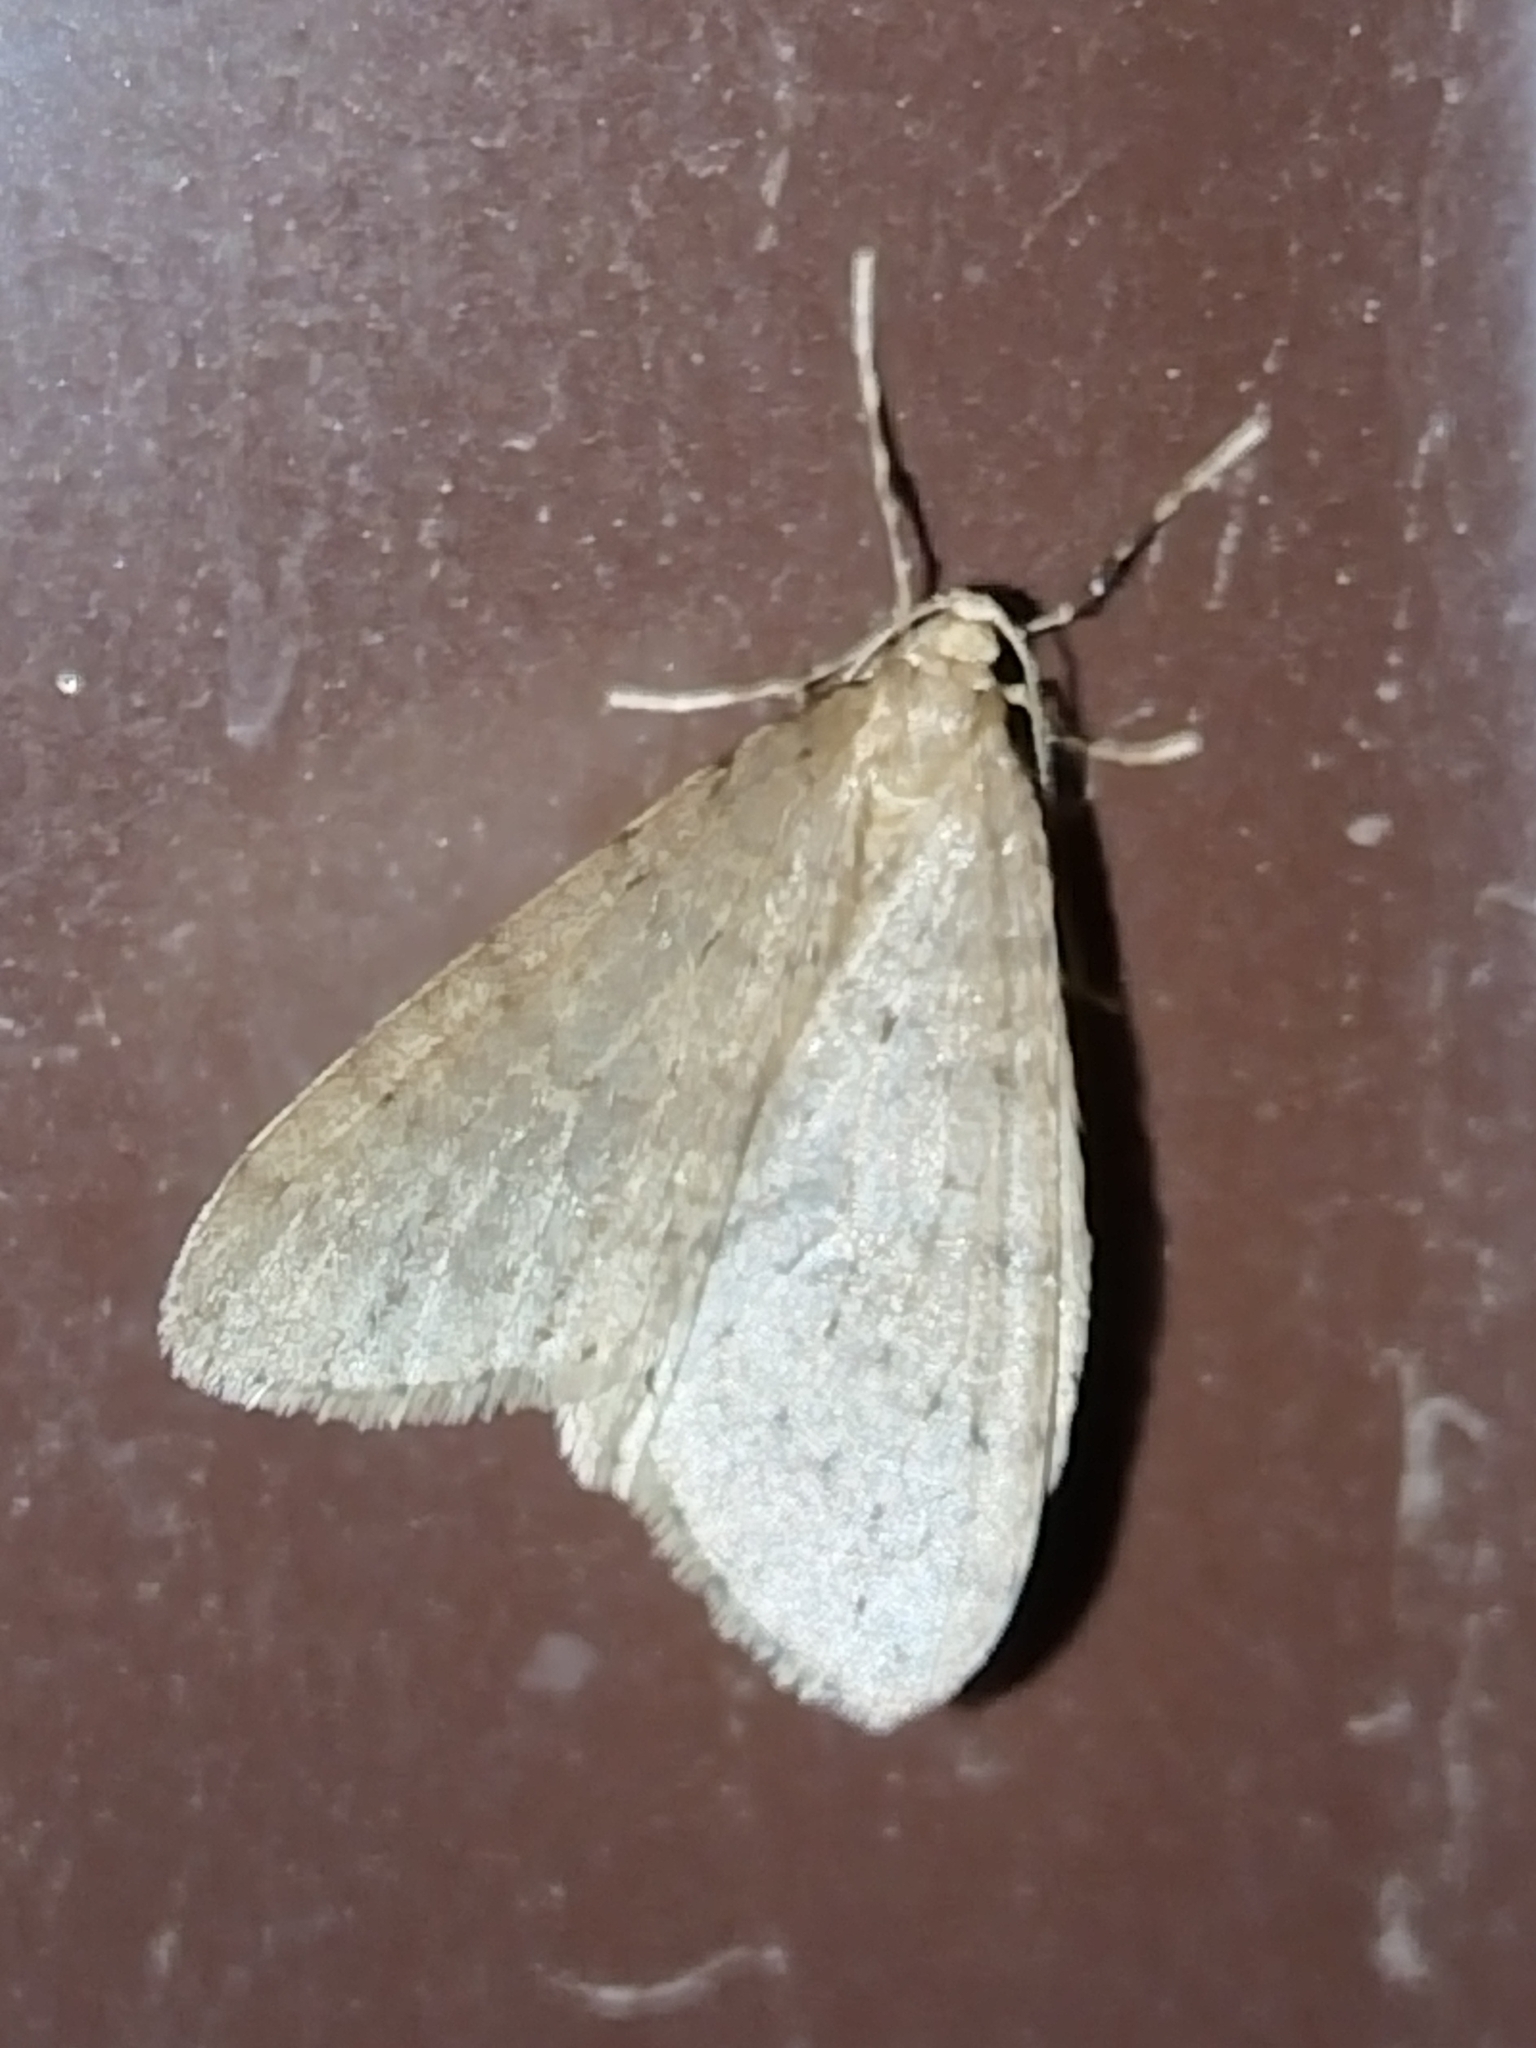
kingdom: Animalia
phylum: Arthropoda
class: Insecta
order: Lepidoptera
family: Geometridae
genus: Operophtera
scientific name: Operophtera fagata
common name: Northern winter moth
